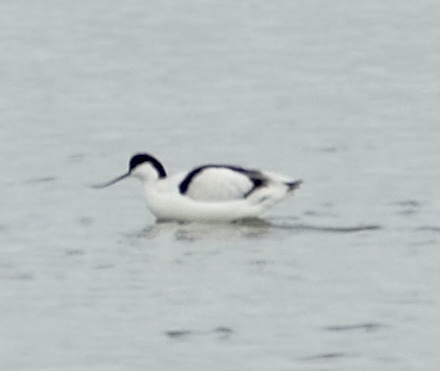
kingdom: Animalia
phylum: Chordata
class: Aves
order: Charadriiformes
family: Recurvirostridae
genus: Recurvirostra
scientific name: Recurvirostra avosetta
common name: Pied avocet
